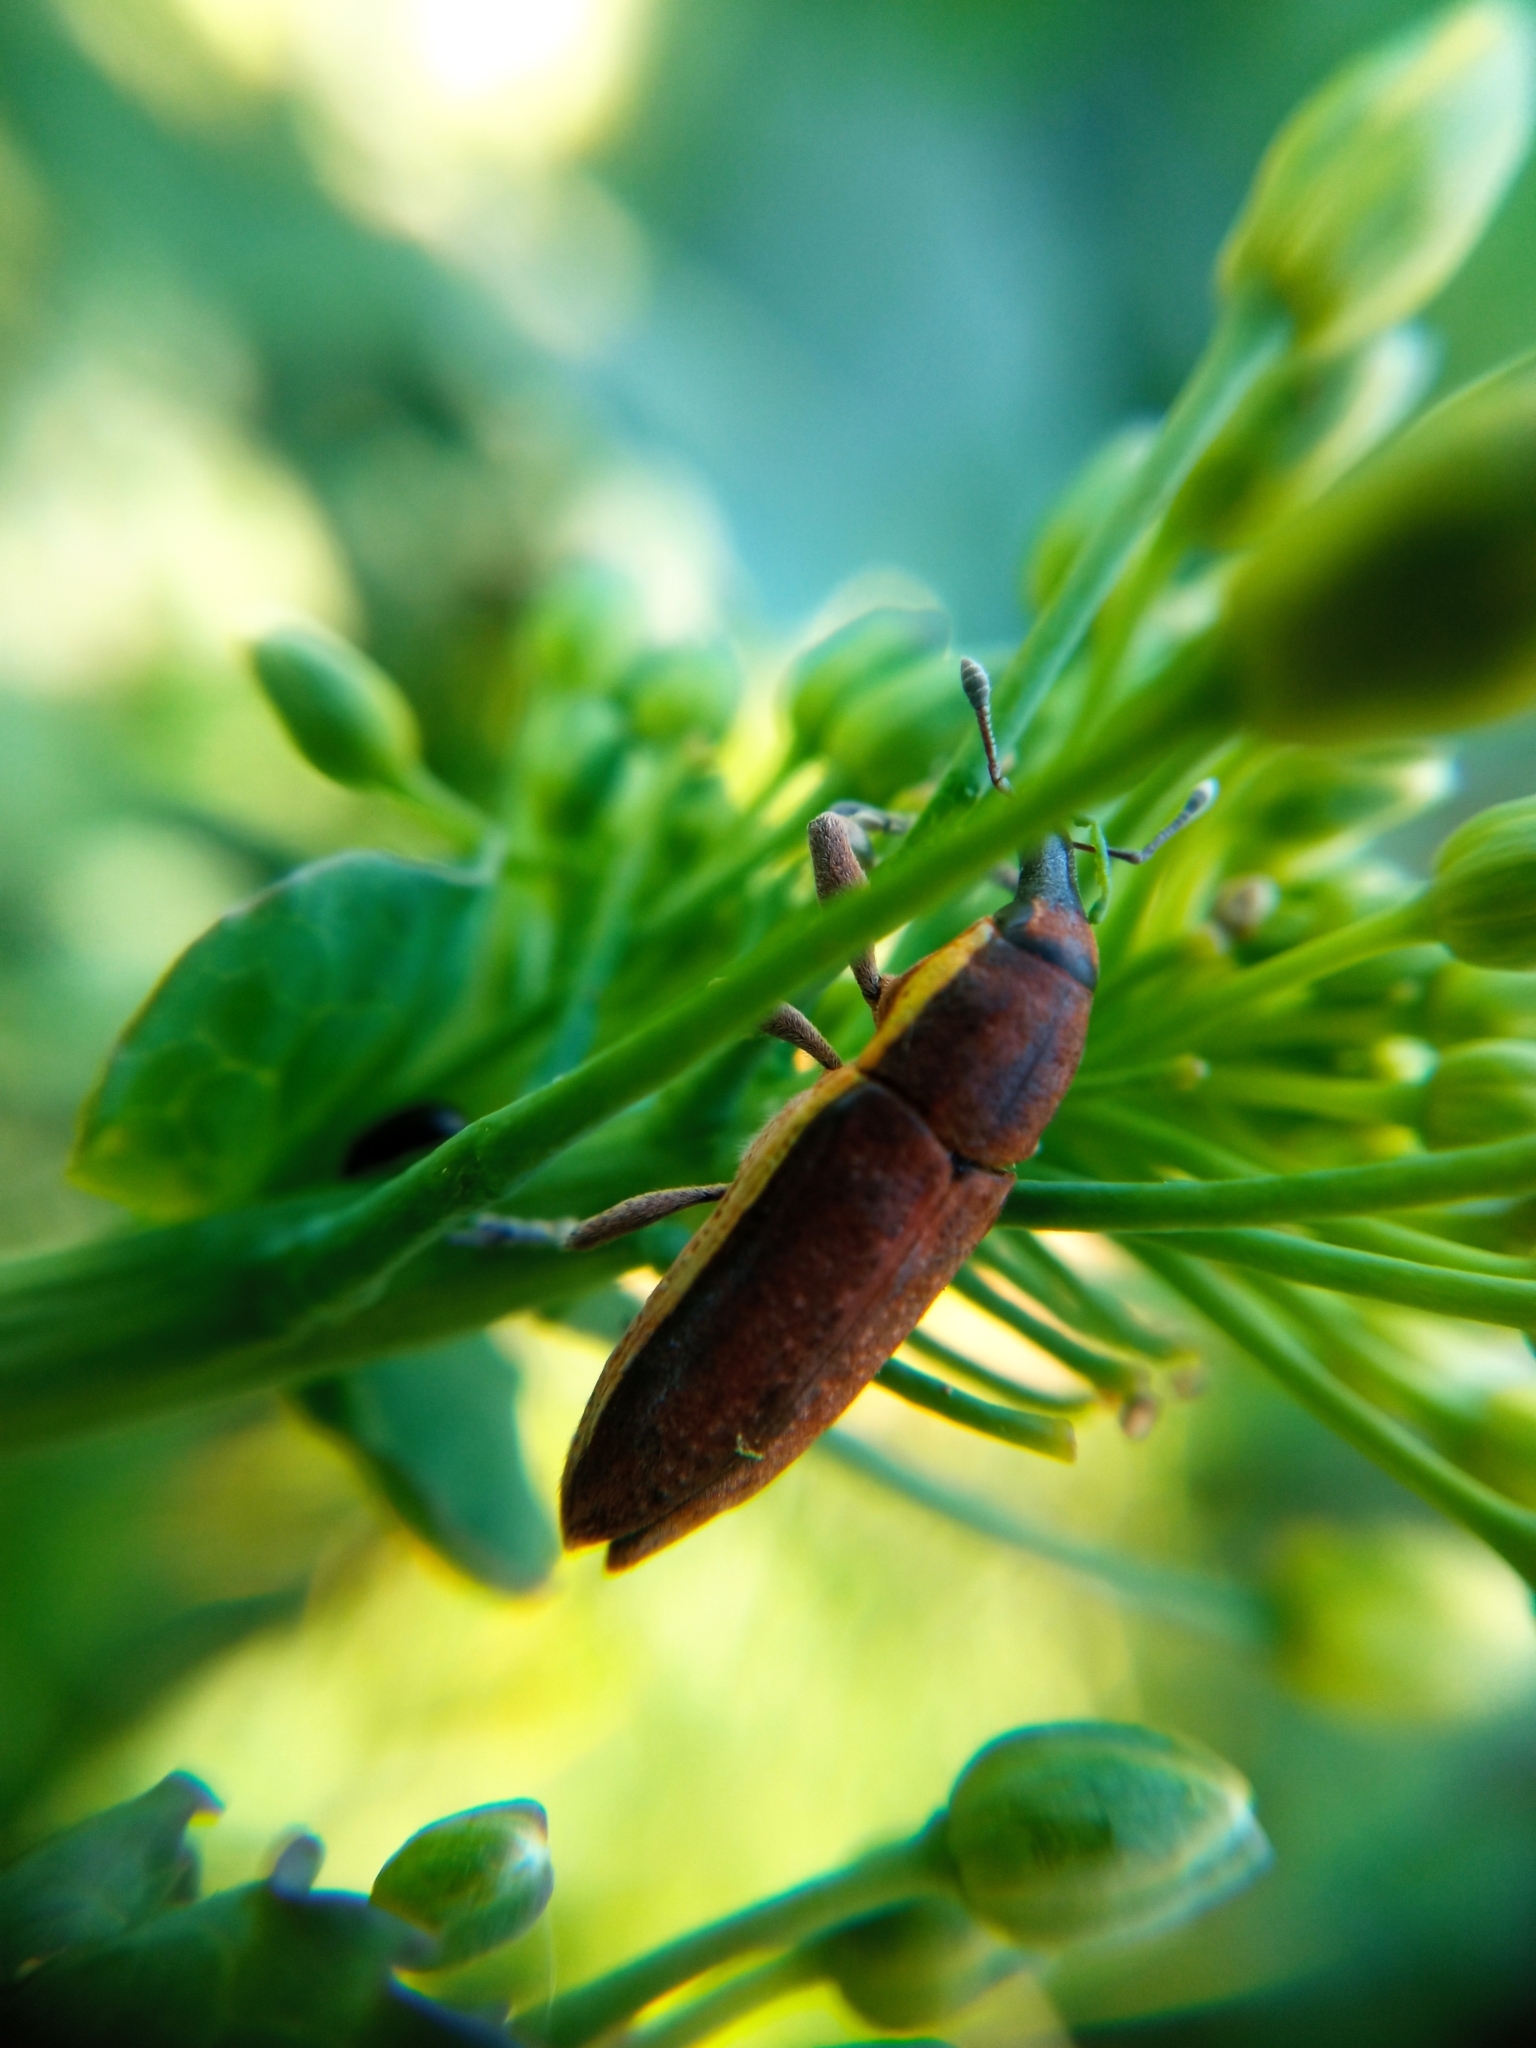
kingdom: Animalia
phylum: Arthropoda
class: Insecta
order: Coleoptera
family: Curculionidae
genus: Lixus
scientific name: Lixus ochraceus
